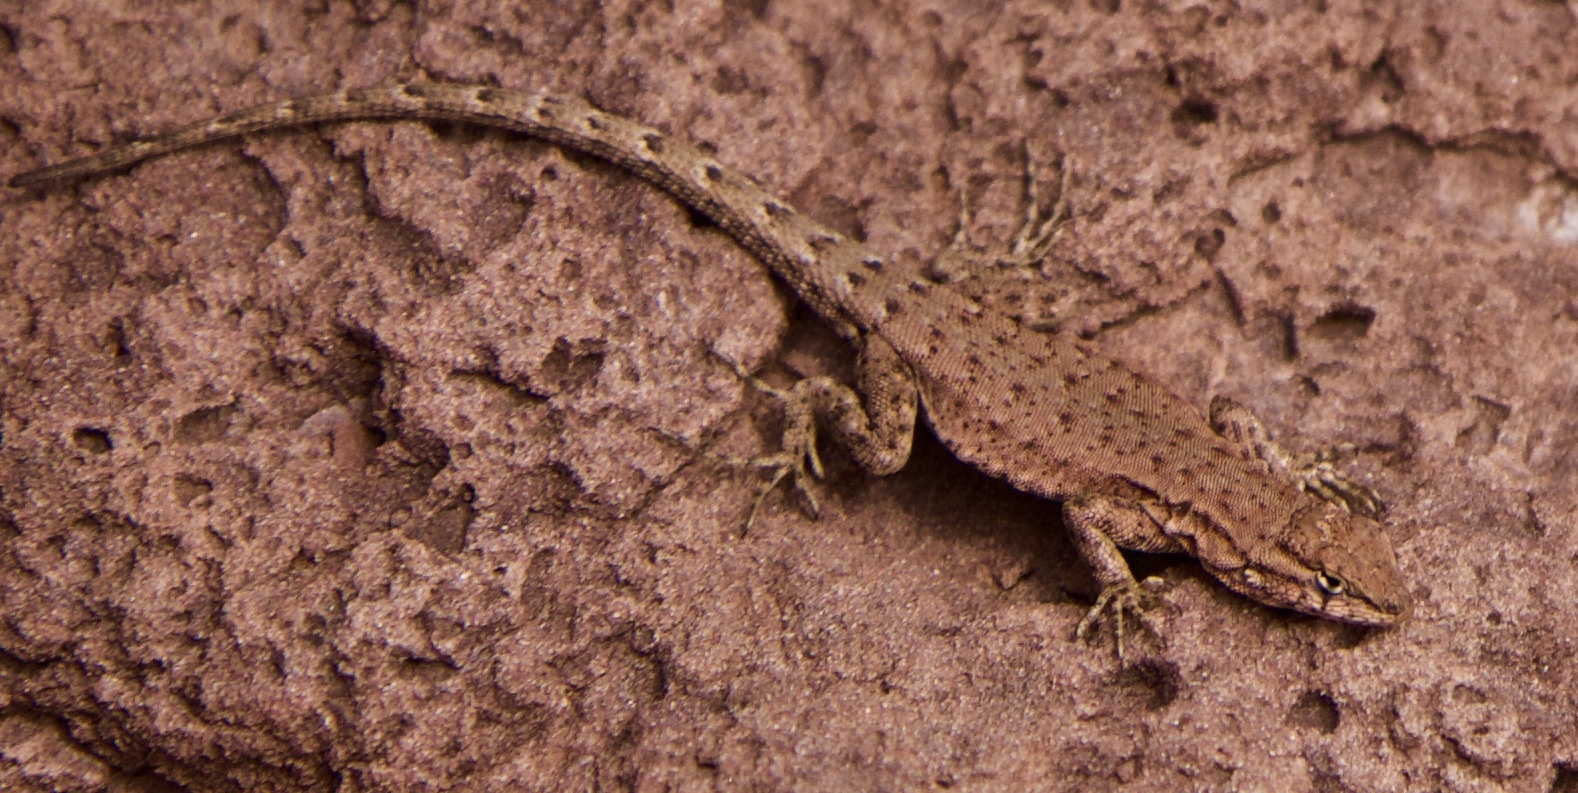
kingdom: Animalia
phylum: Chordata
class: Squamata
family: Phrynosomatidae
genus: Uta
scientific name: Uta stansburiana
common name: Side-blotched lizard
